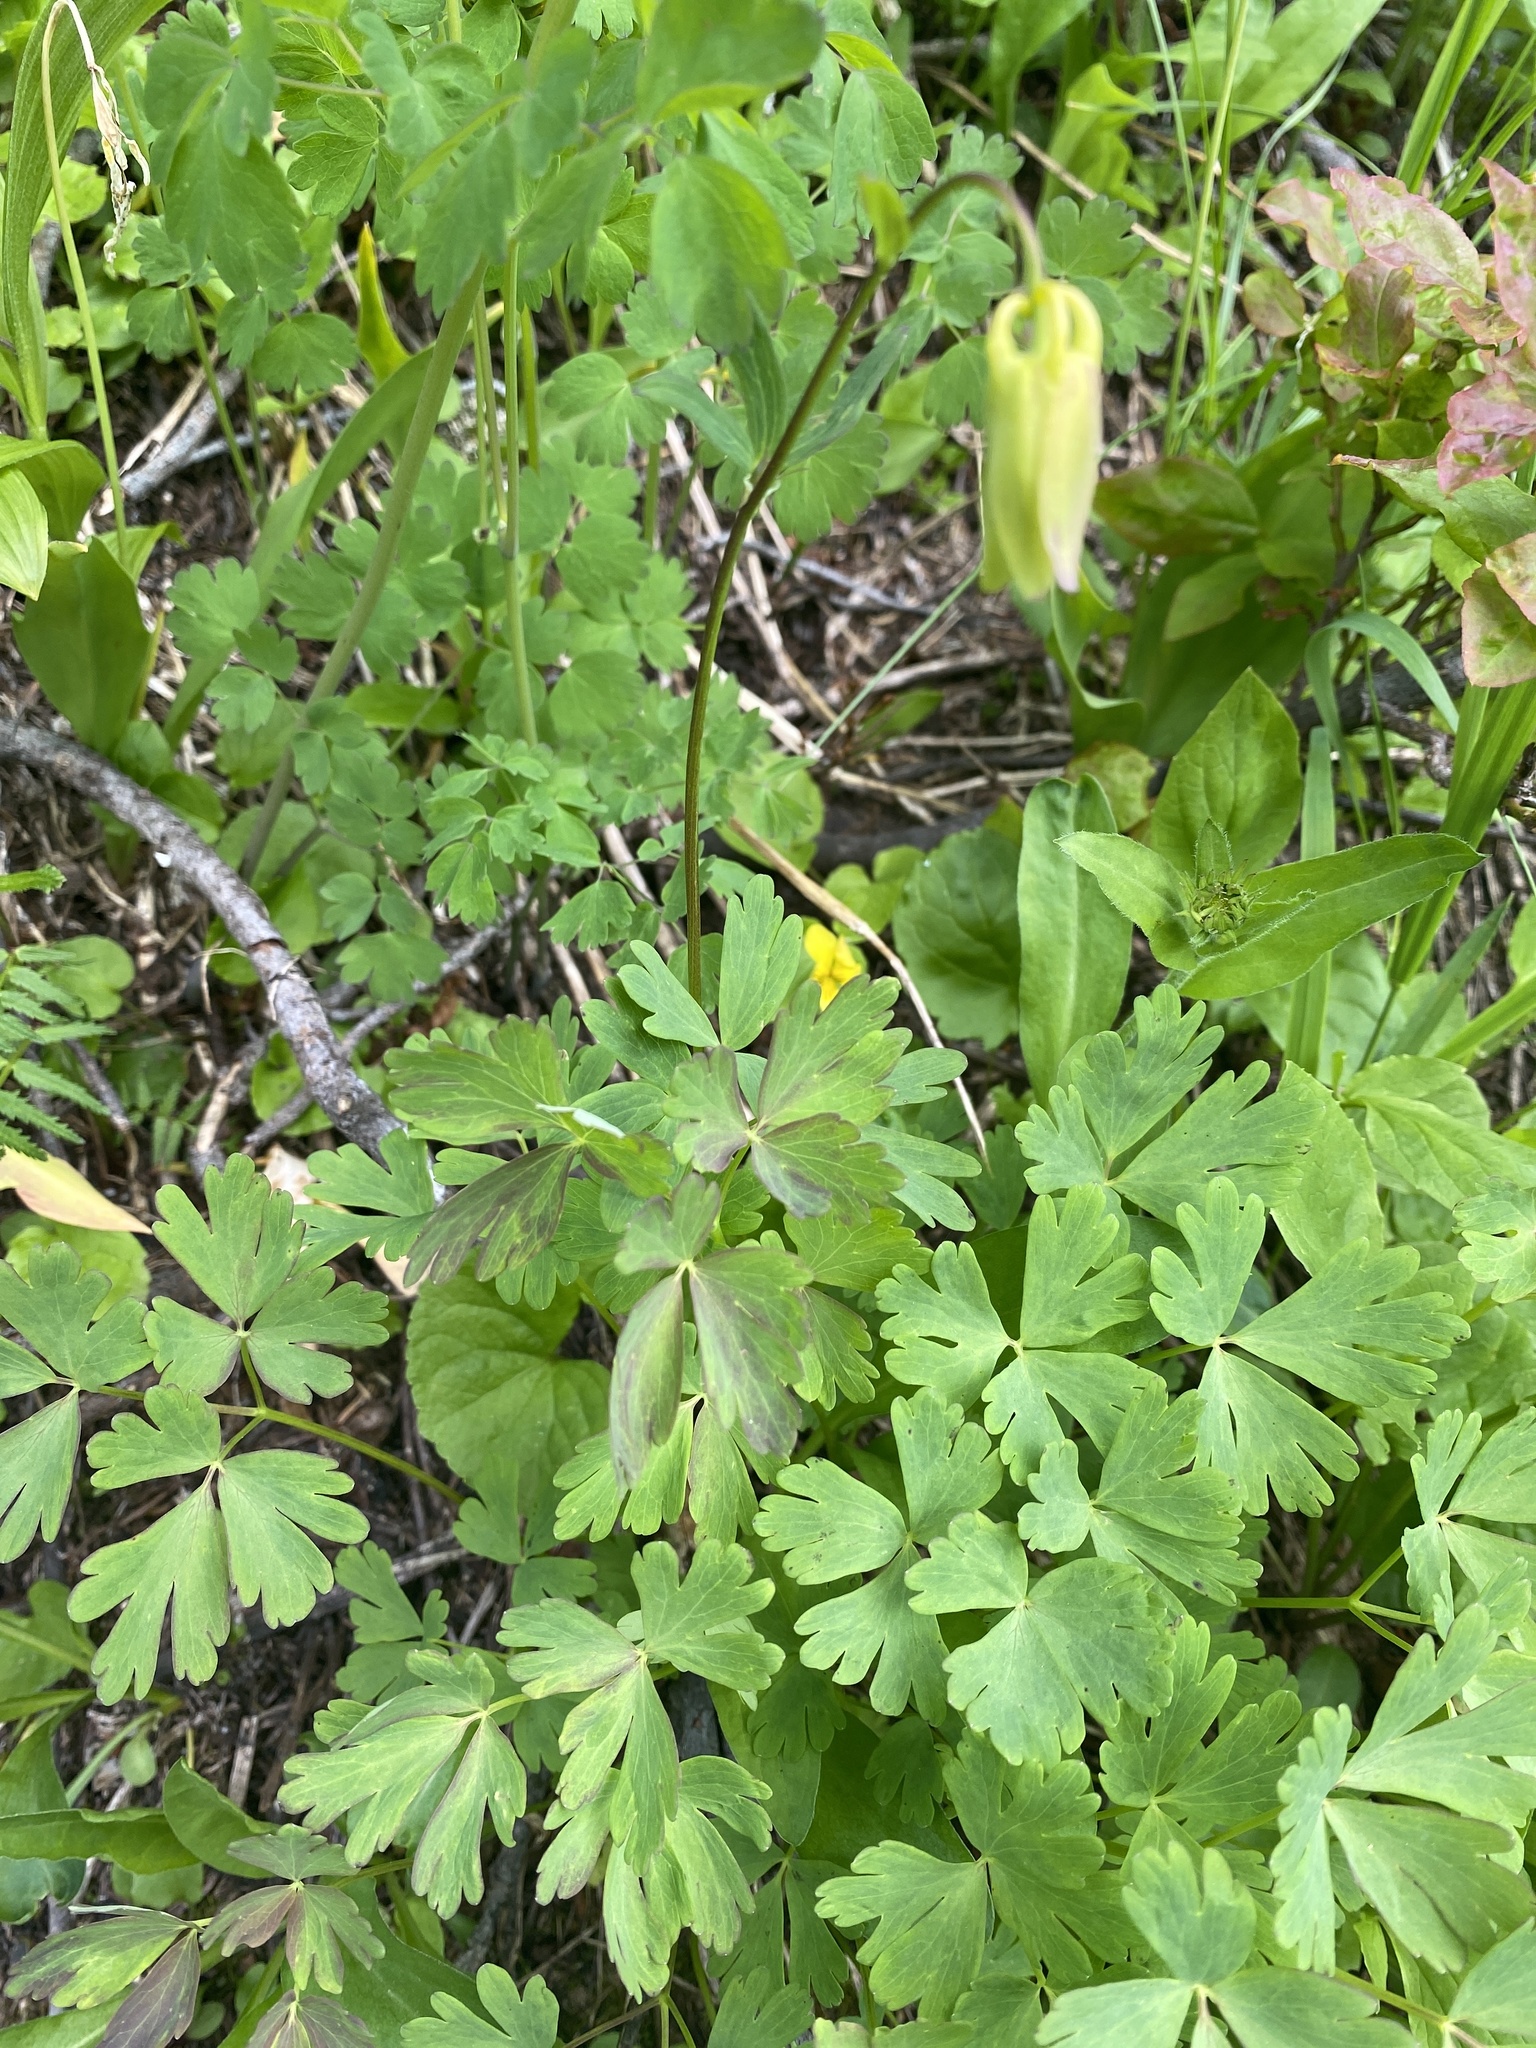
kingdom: Plantae
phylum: Tracheophyta
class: Magnoliopsida
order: Ranunculales
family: Ranunculaceae
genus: Aquilegia
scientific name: Aquilegia flavescens
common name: Yellow columbine
